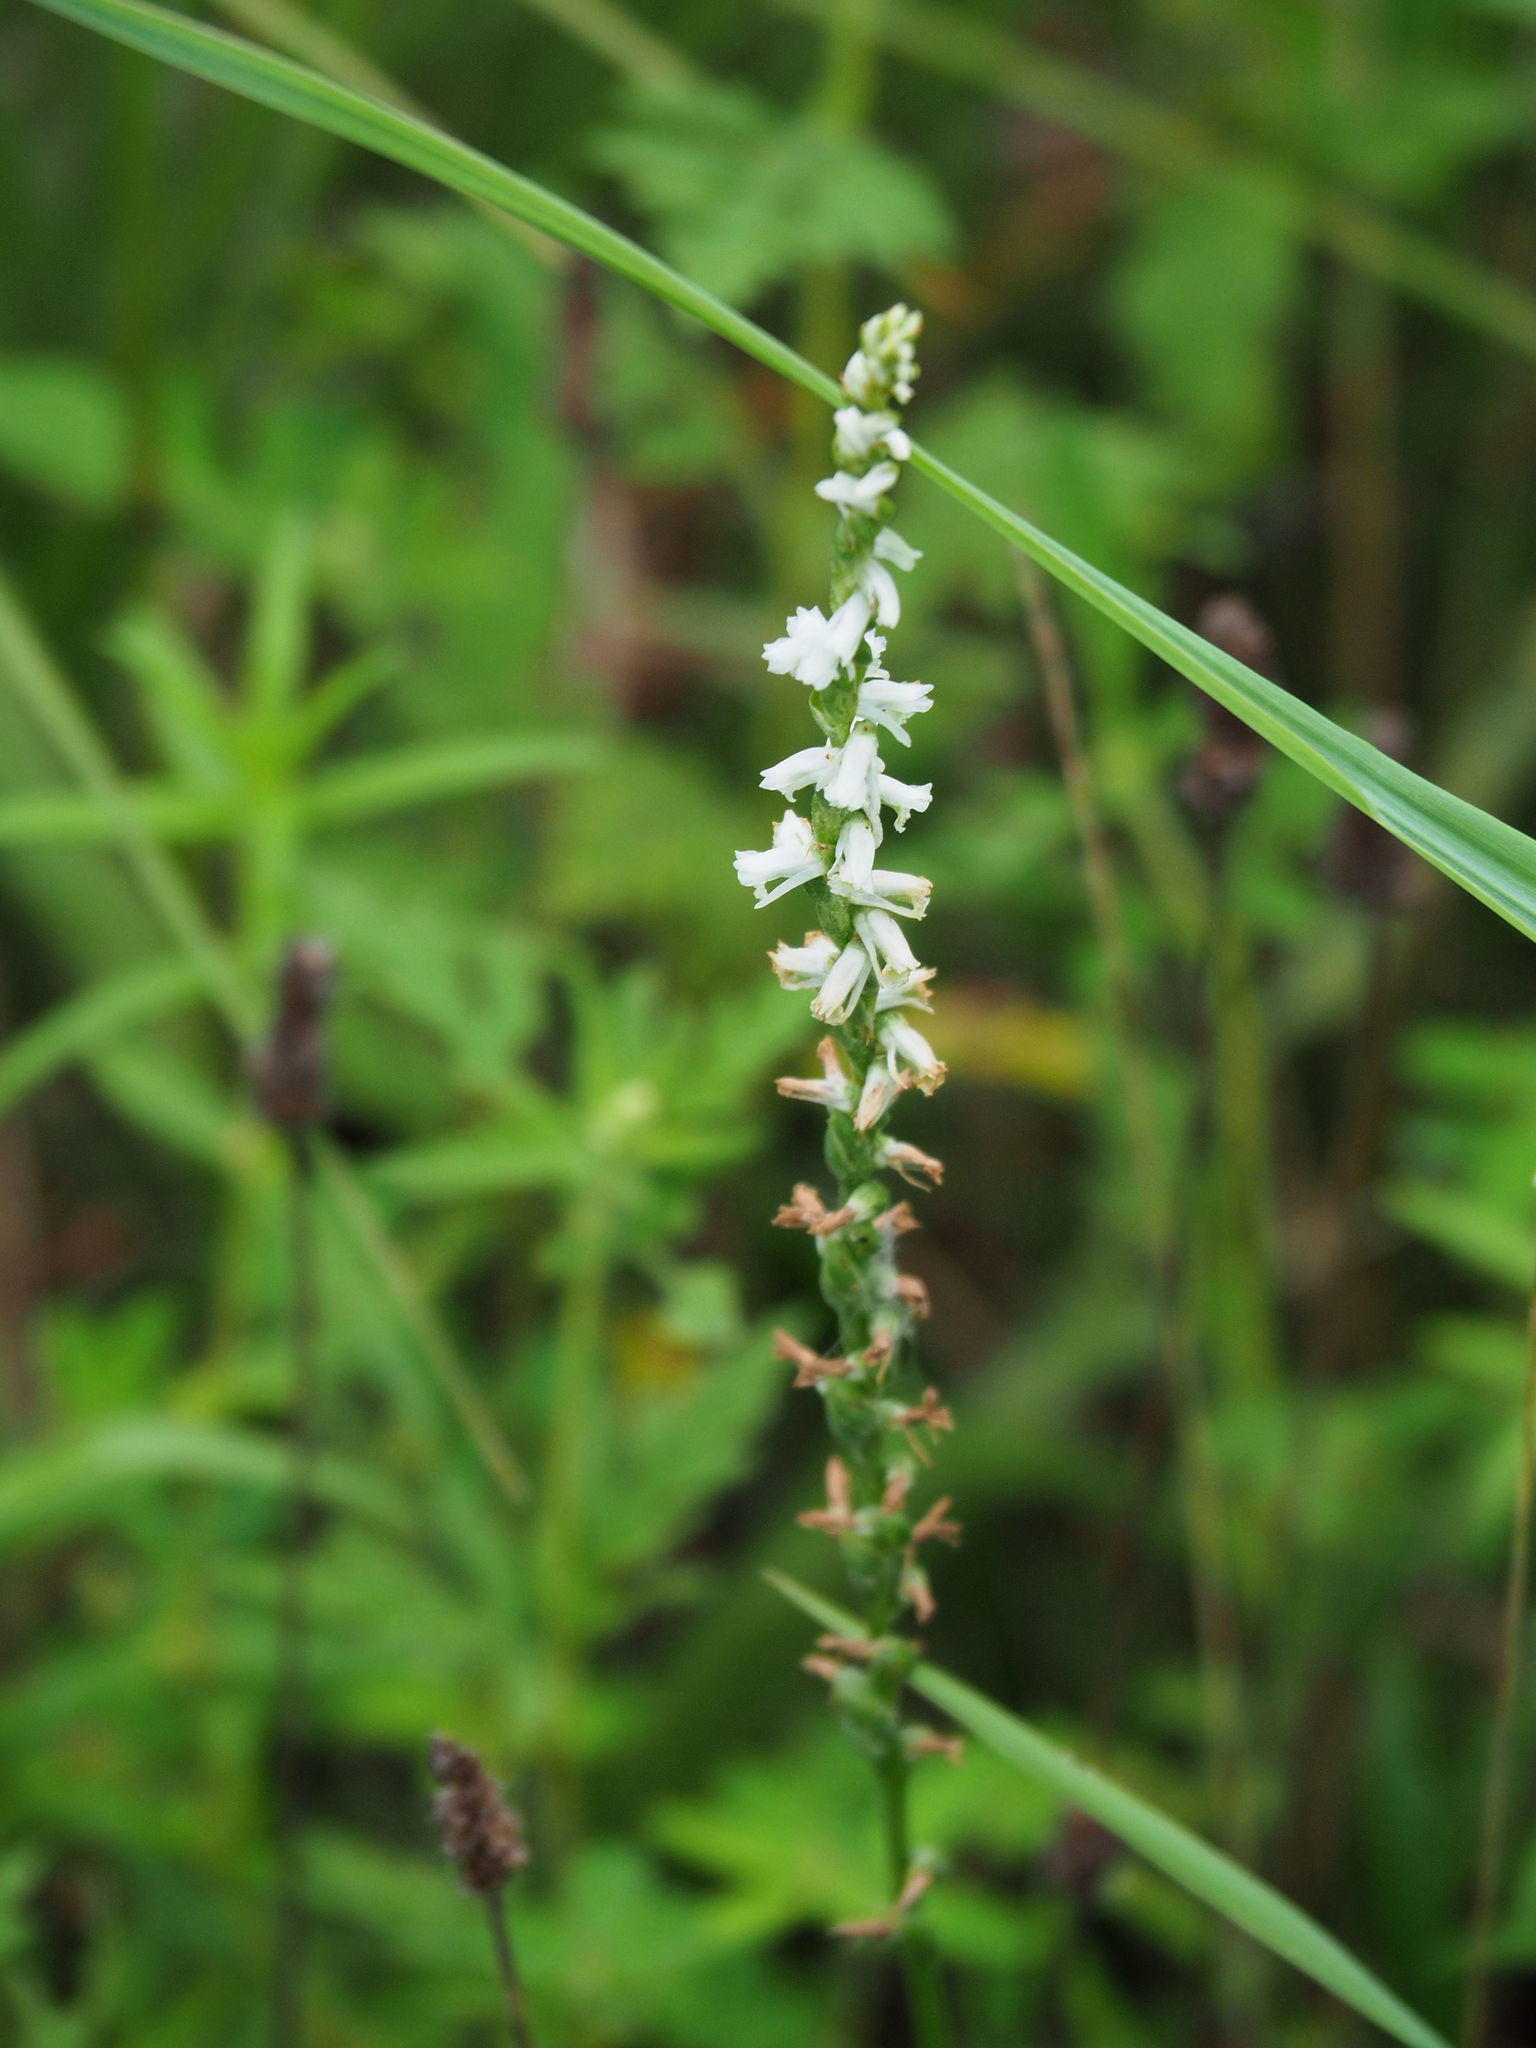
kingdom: Plantae
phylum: Tracheophyta
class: Liliopsida
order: Asparagales
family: Orchidaceae
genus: Spiranthes
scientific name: Spiranthes lacera
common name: Northern slender ladies'-tresses
